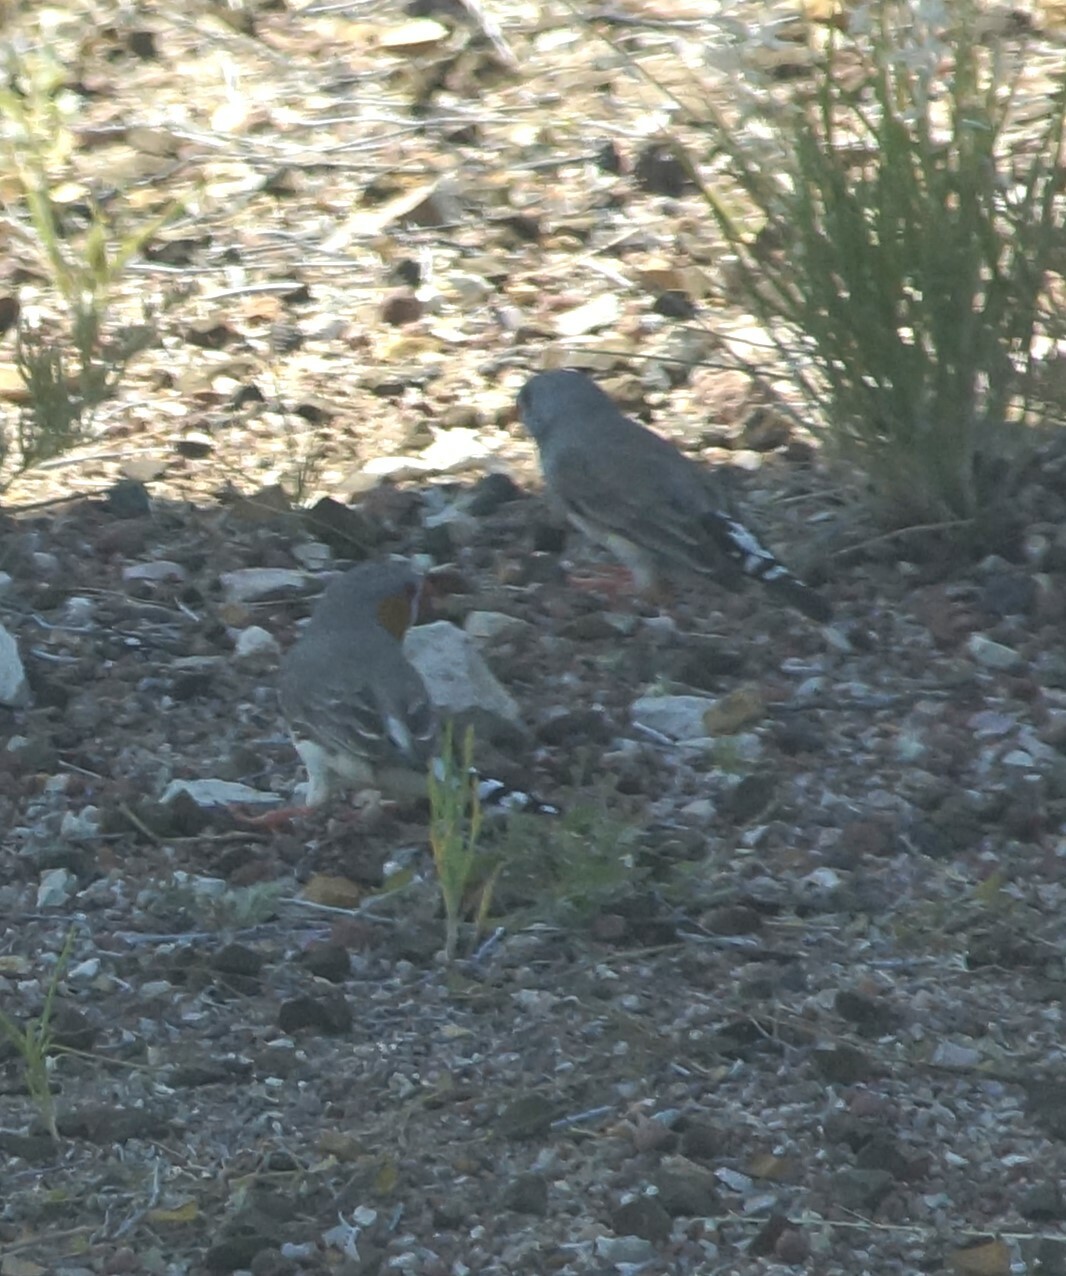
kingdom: Animalia
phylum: Chordata
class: Aves
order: Passeriformes
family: Estrildidae
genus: Taeniopygia
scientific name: Taeniopygia guttata
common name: Zebra finch
